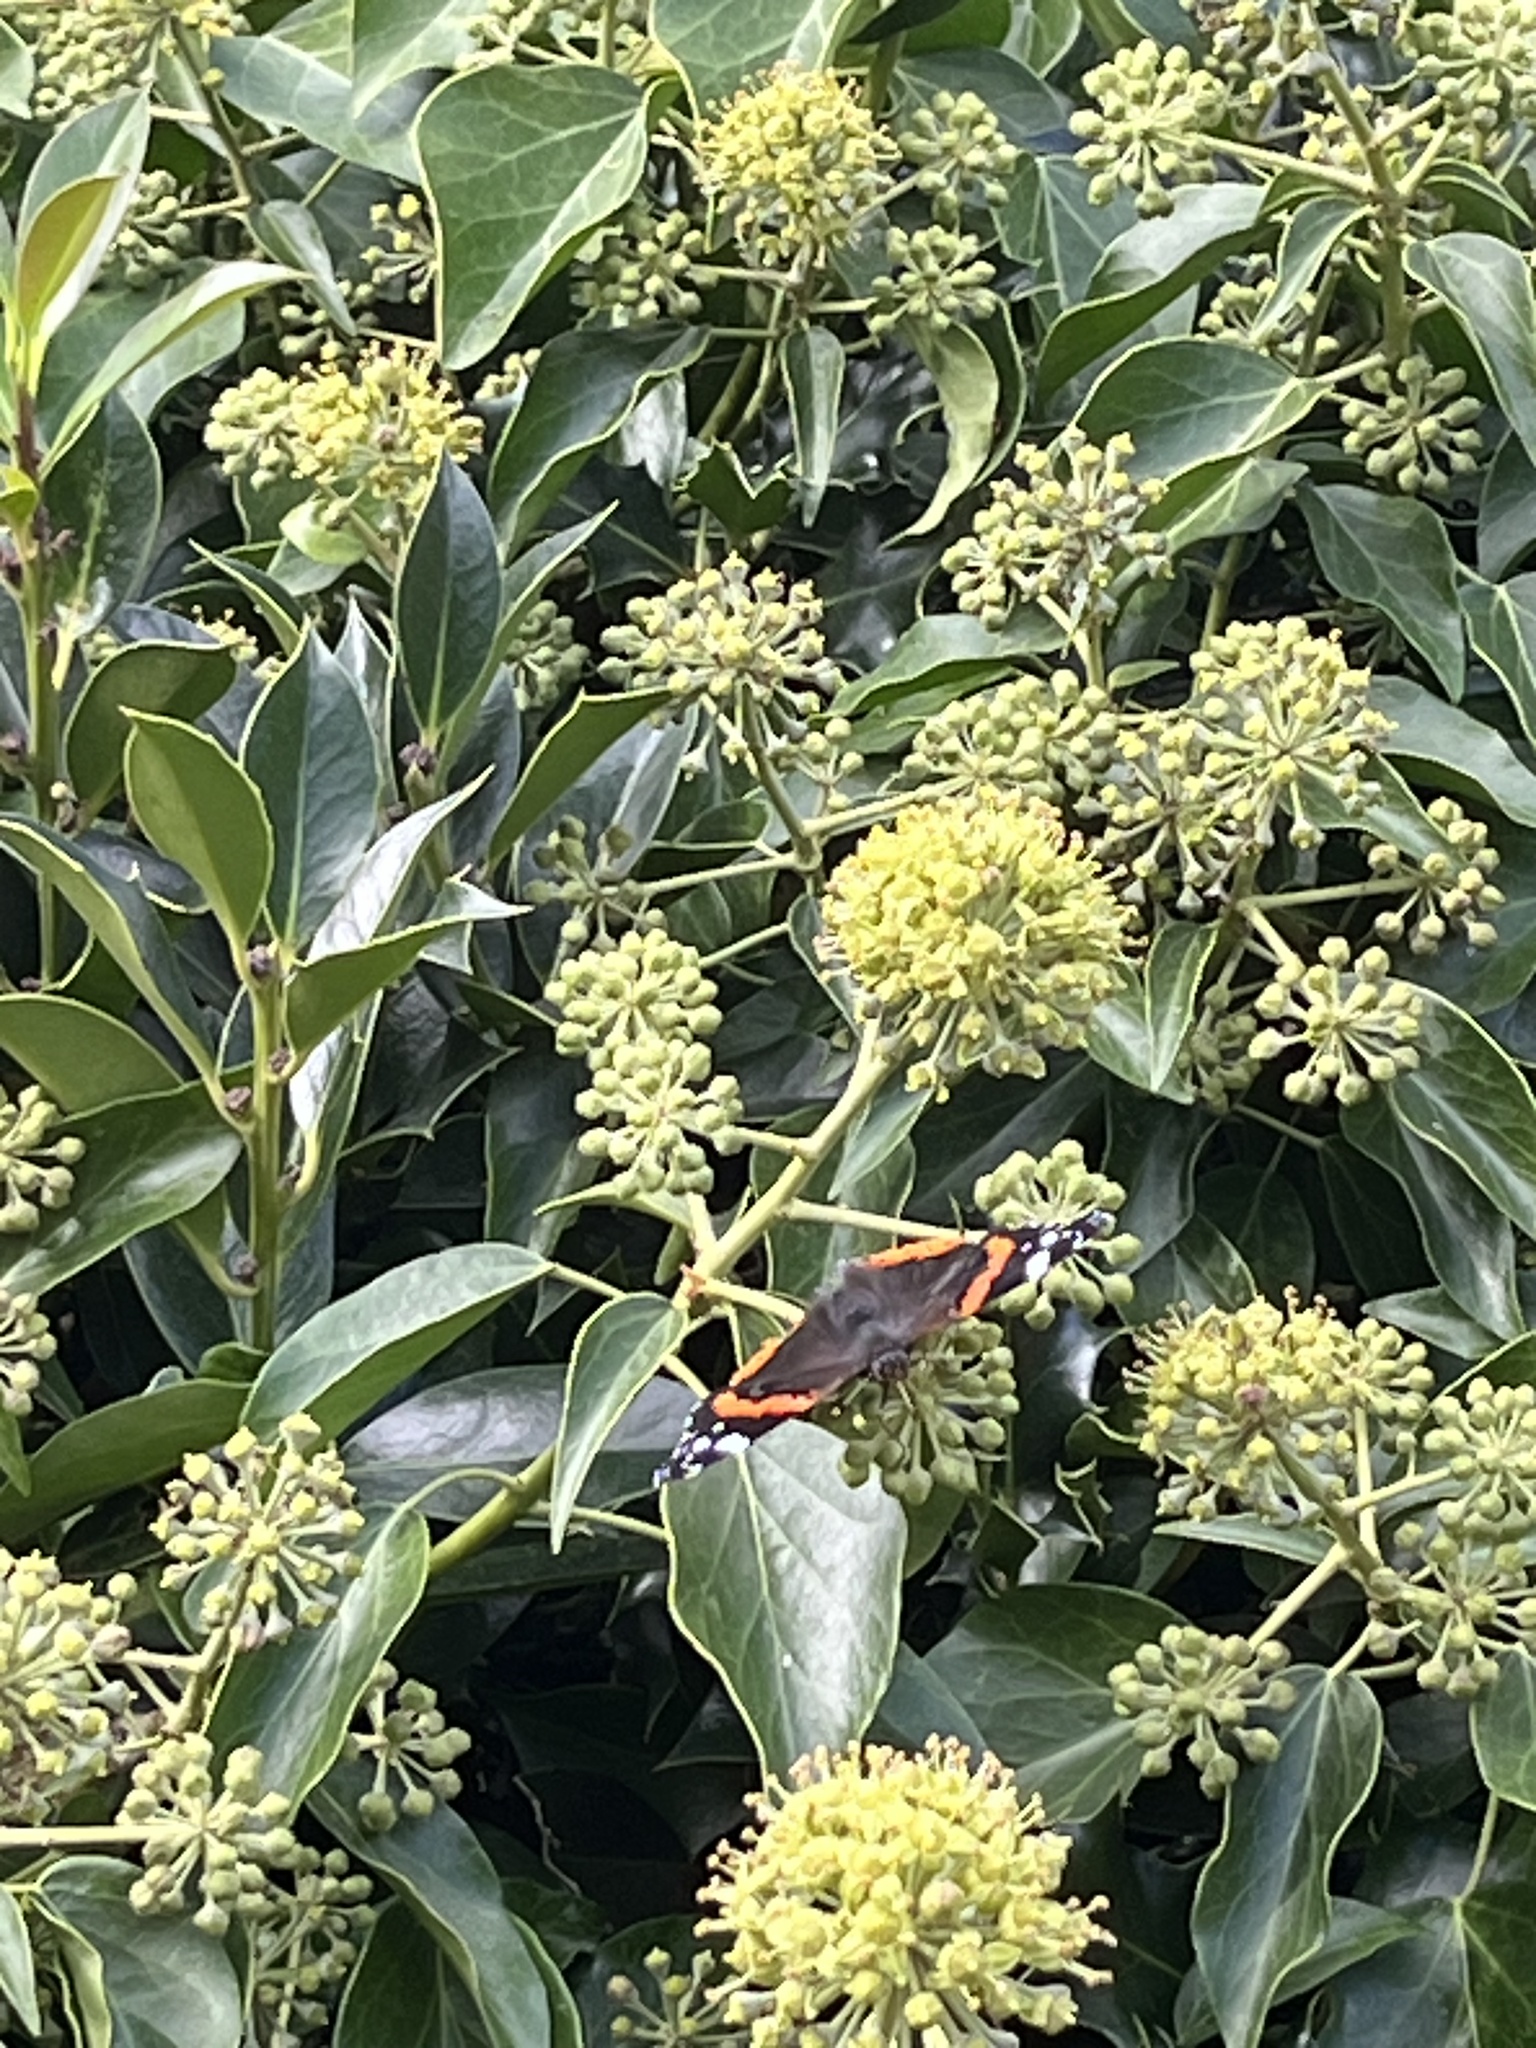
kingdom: Animalia
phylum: Arthropoda
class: Insecta
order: Lepidoptera
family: Nymphalidae
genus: Vanessa
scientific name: Vanessa atalanta
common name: Red admiral
